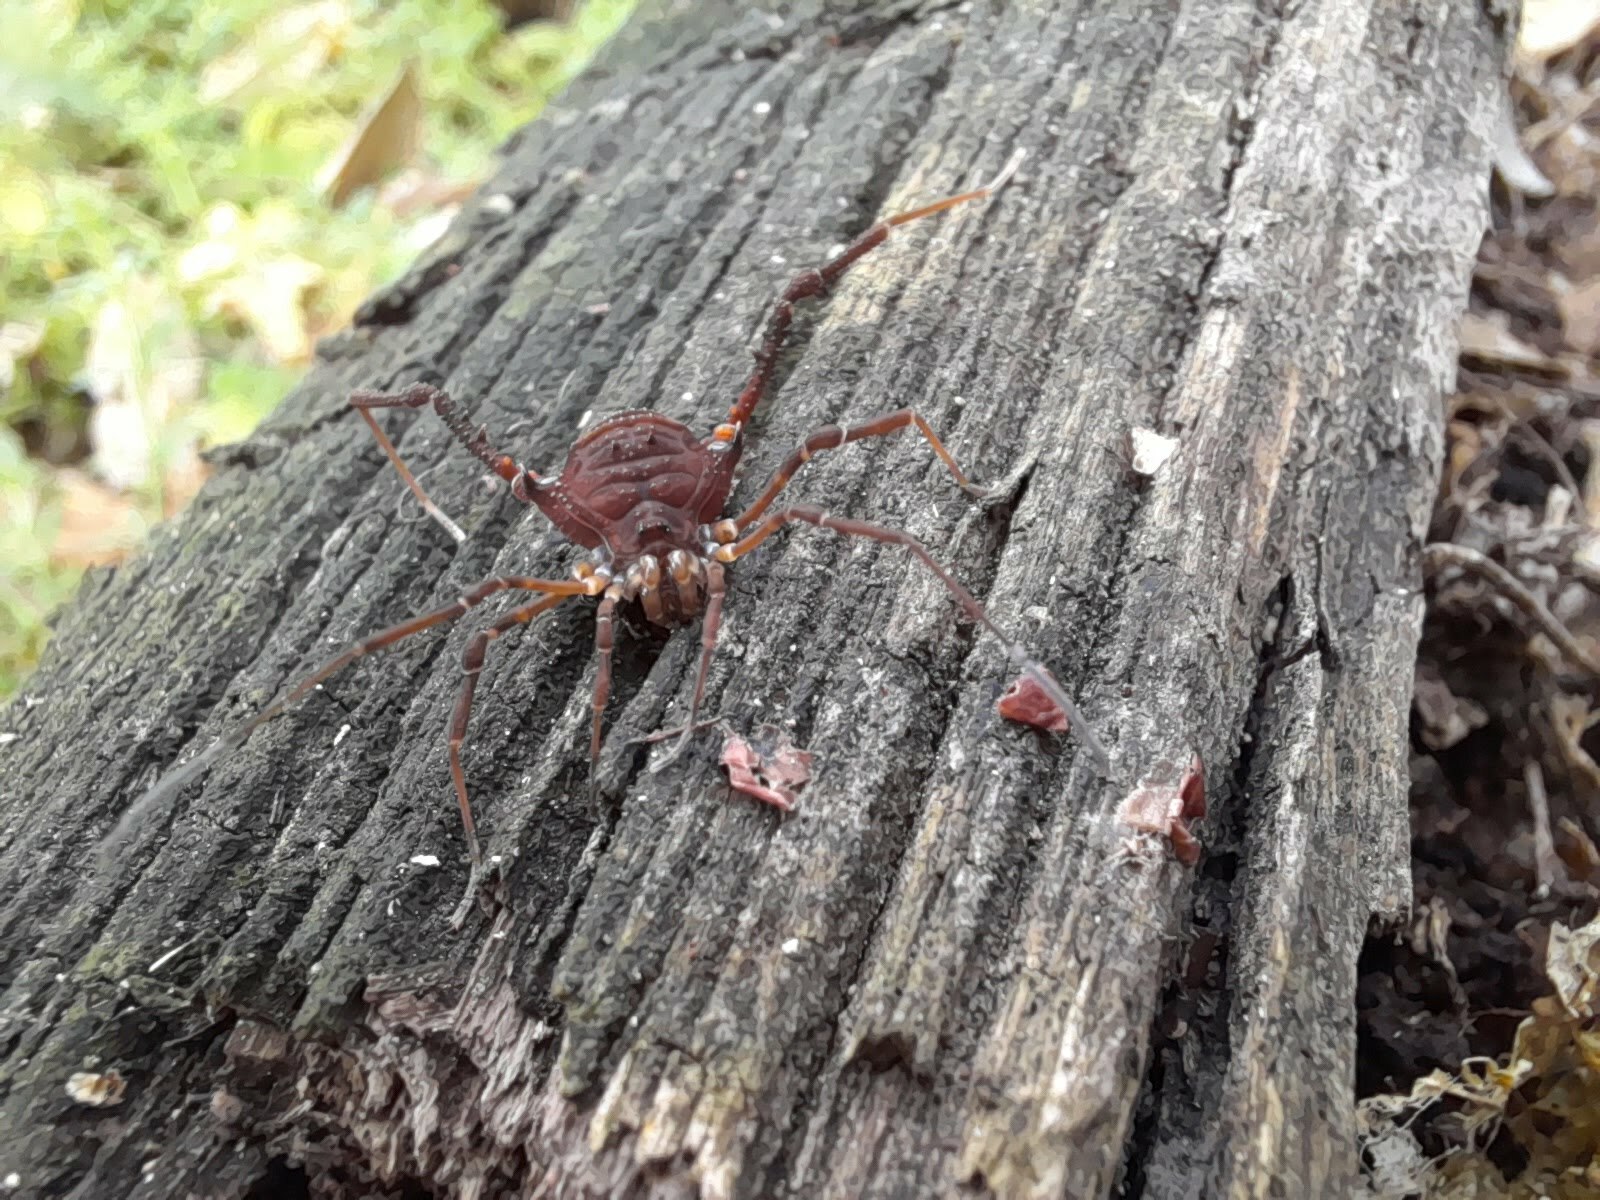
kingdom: Animalia
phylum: Arthropoda
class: Arachnida
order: Opiliones
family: Gonyleptidae
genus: Opisthoplatus
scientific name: Opisthoplatus prospicuus
